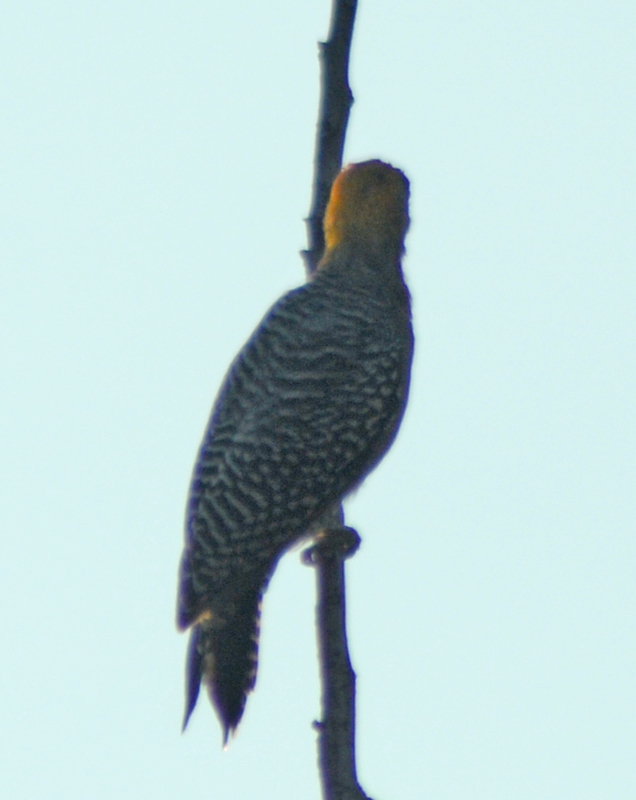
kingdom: Animalia
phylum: Chordata
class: Aves
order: Piciformes
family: Picidae
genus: Melanerpes
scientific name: Melanerpes chrysogenys
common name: Golden-cheeked woodpecker
